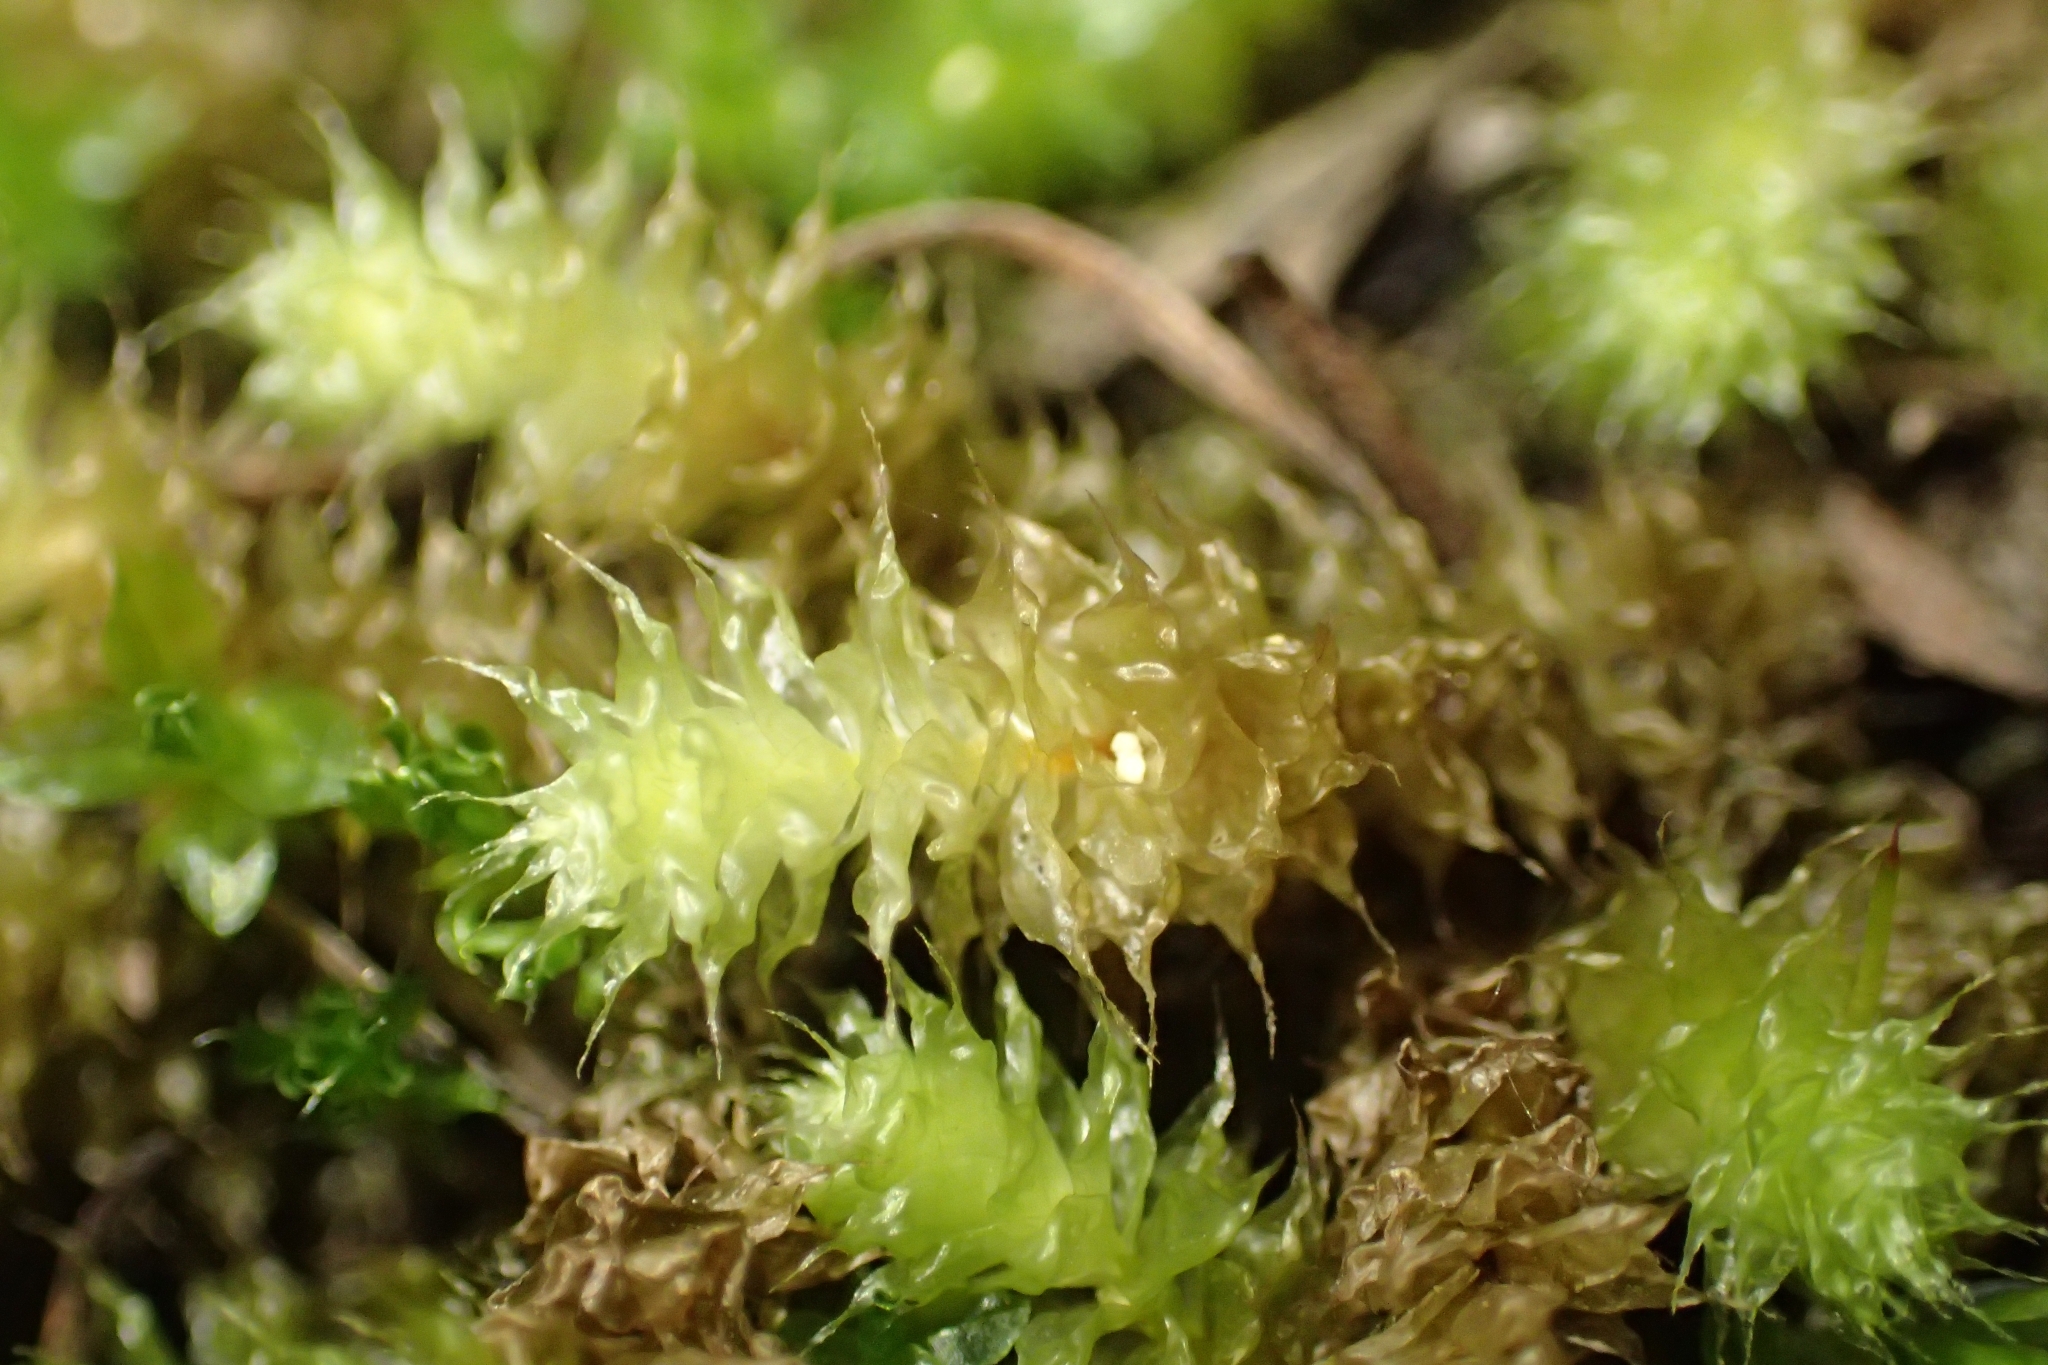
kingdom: Plantae
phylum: Bryophyta
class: Bryopsida
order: Ptychomniales
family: Ptychomniaceae
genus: Ptychomnion
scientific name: Ptychomnion aciculare
